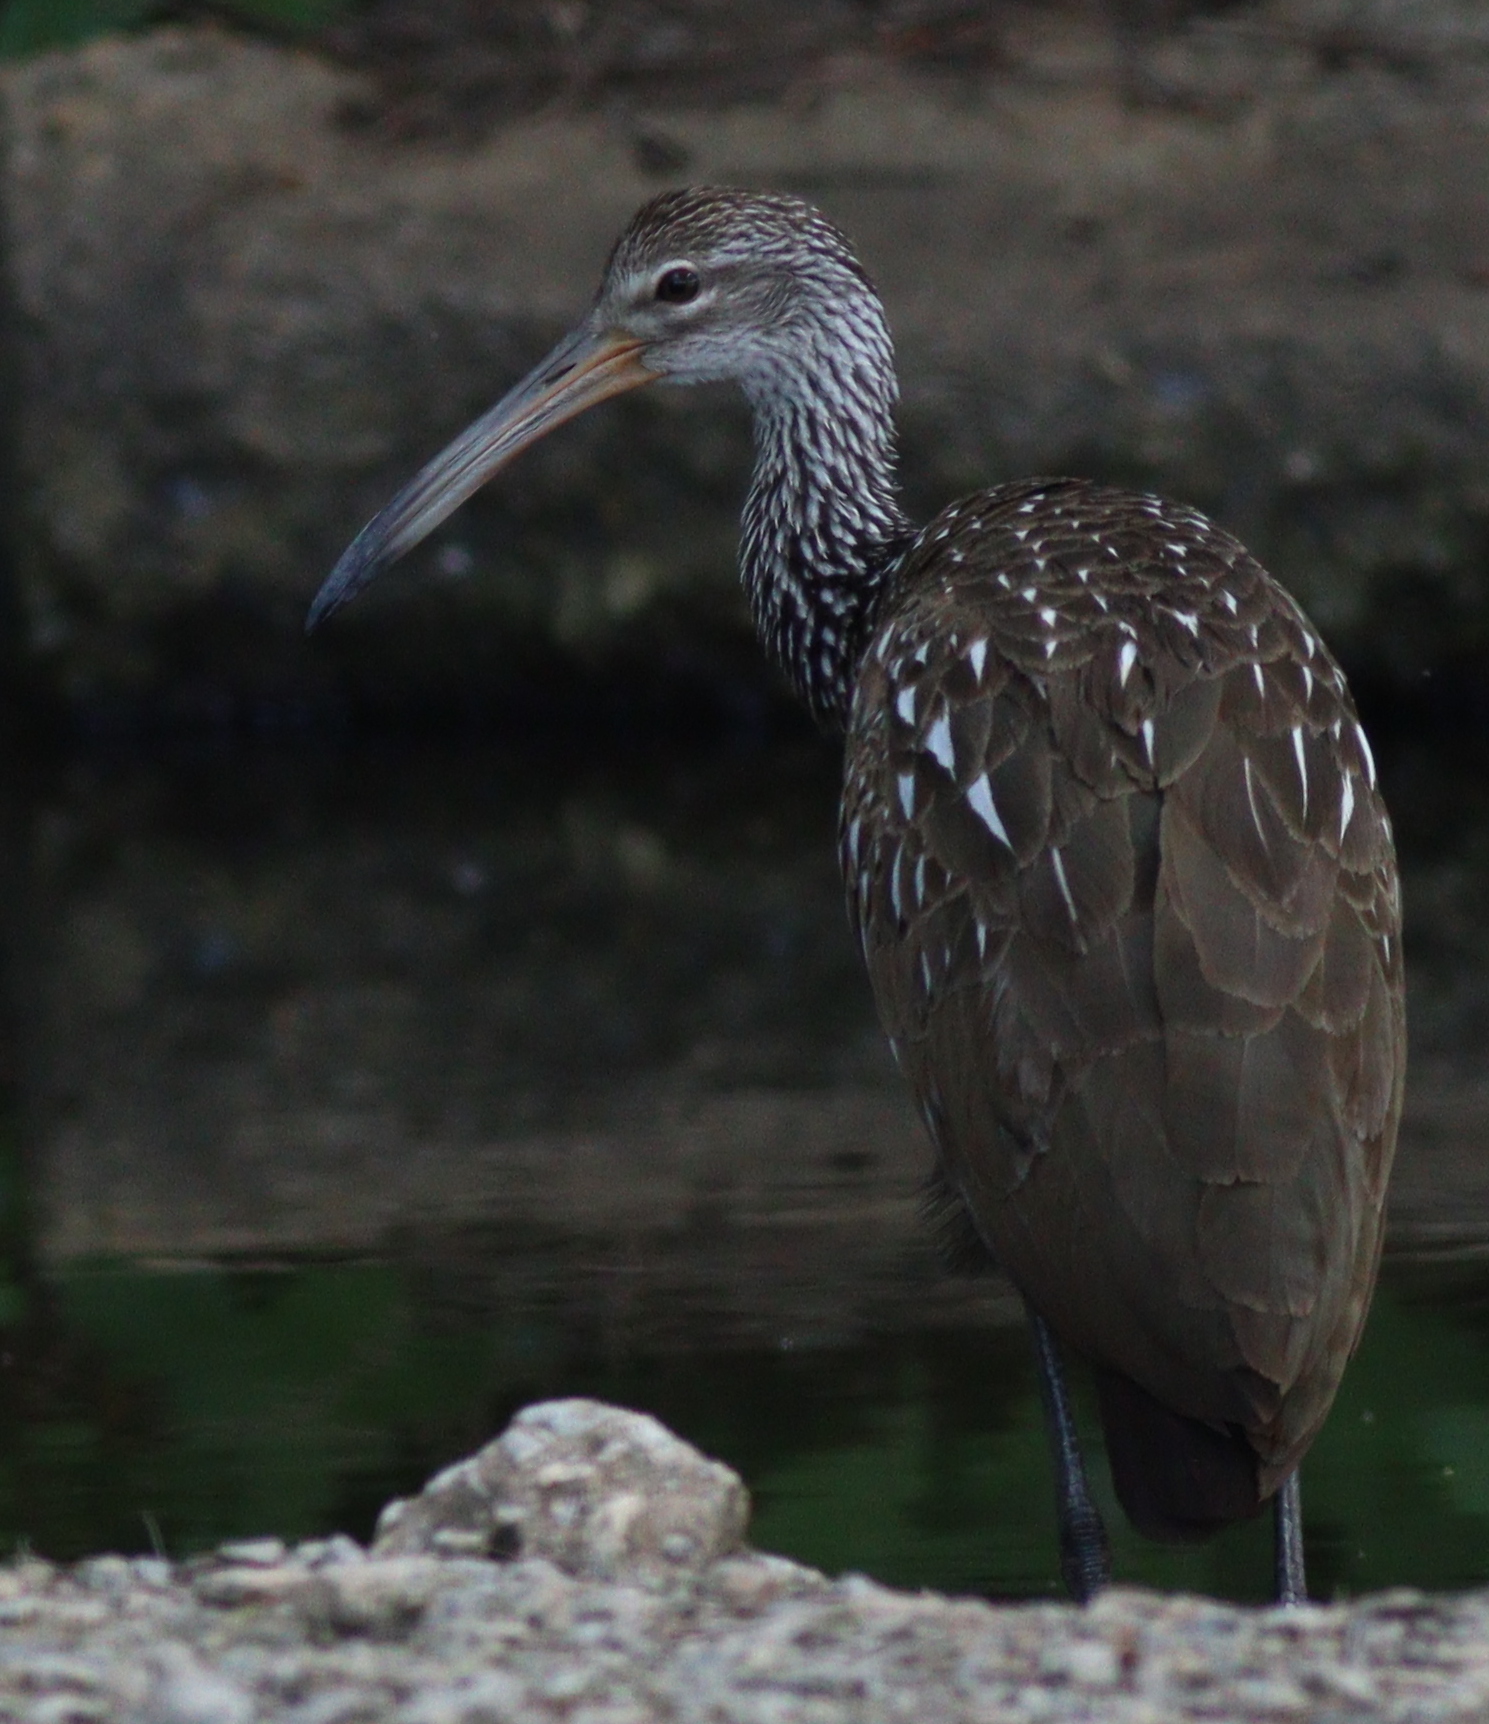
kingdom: Animalia
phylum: Chordata
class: Aves
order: Gruiformes
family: Aramidae
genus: Aramus
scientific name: Aramus guarauna
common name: Limpkin
